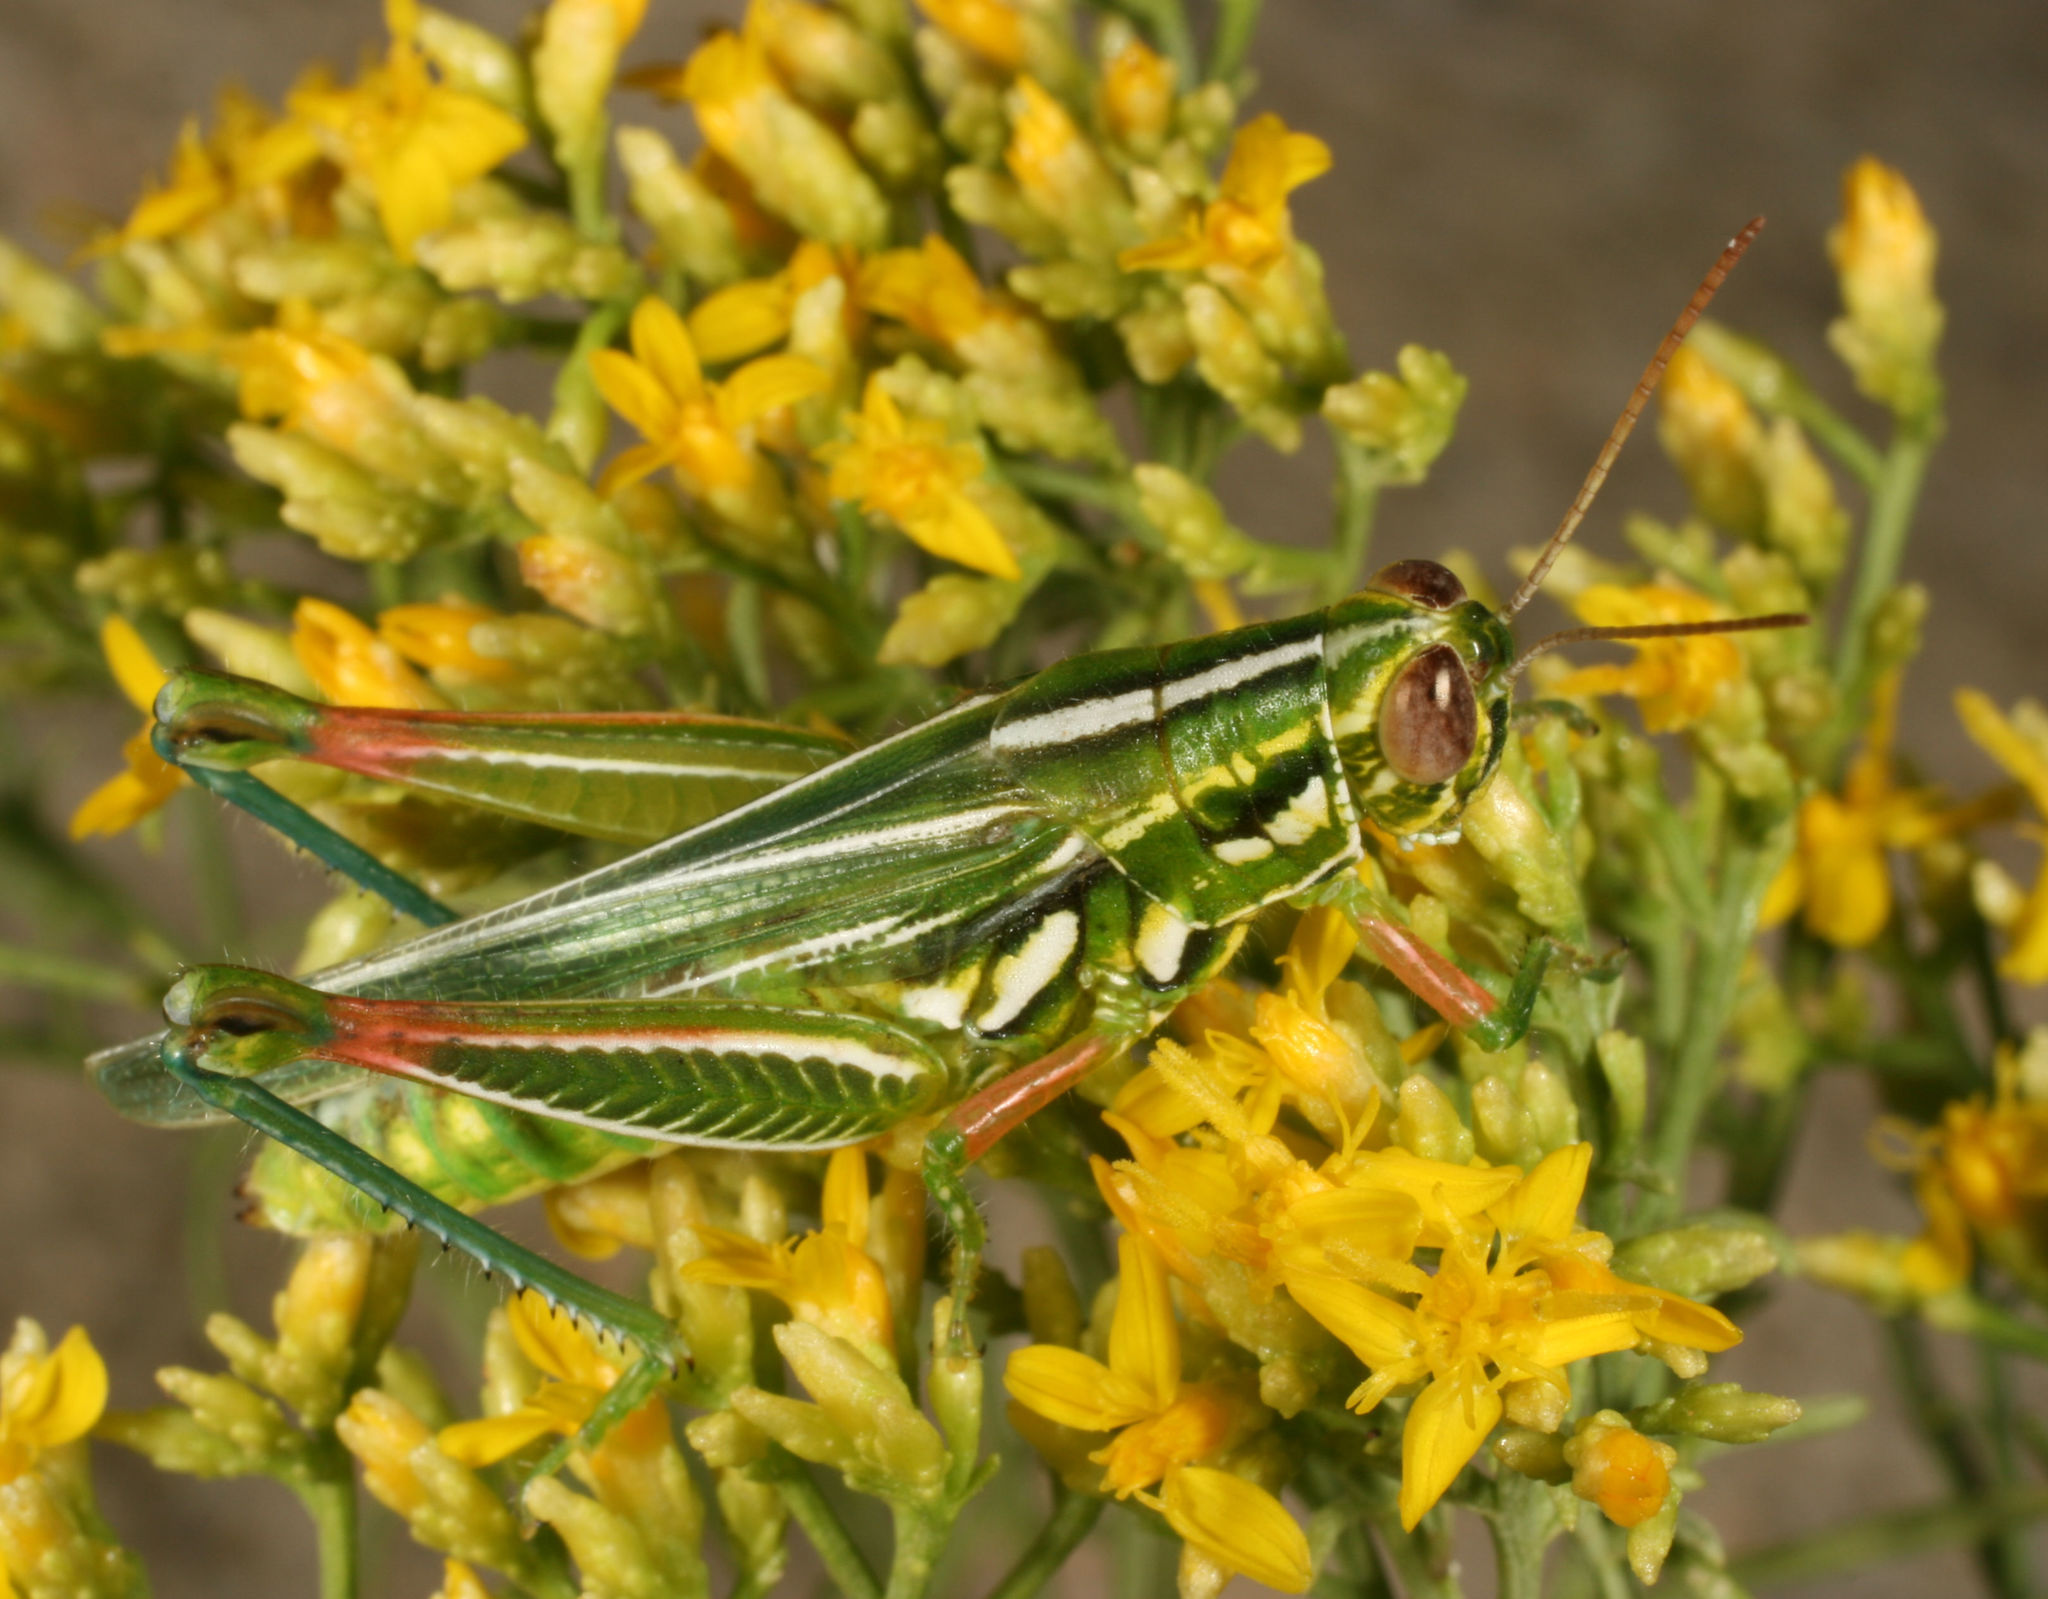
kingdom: Animalia
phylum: Arthropoda
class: Insecta
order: Orthoptera
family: Acrididae
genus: Hesperotettix
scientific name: Hesperotettix viridis
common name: Meadow purple-striped grasshopper
